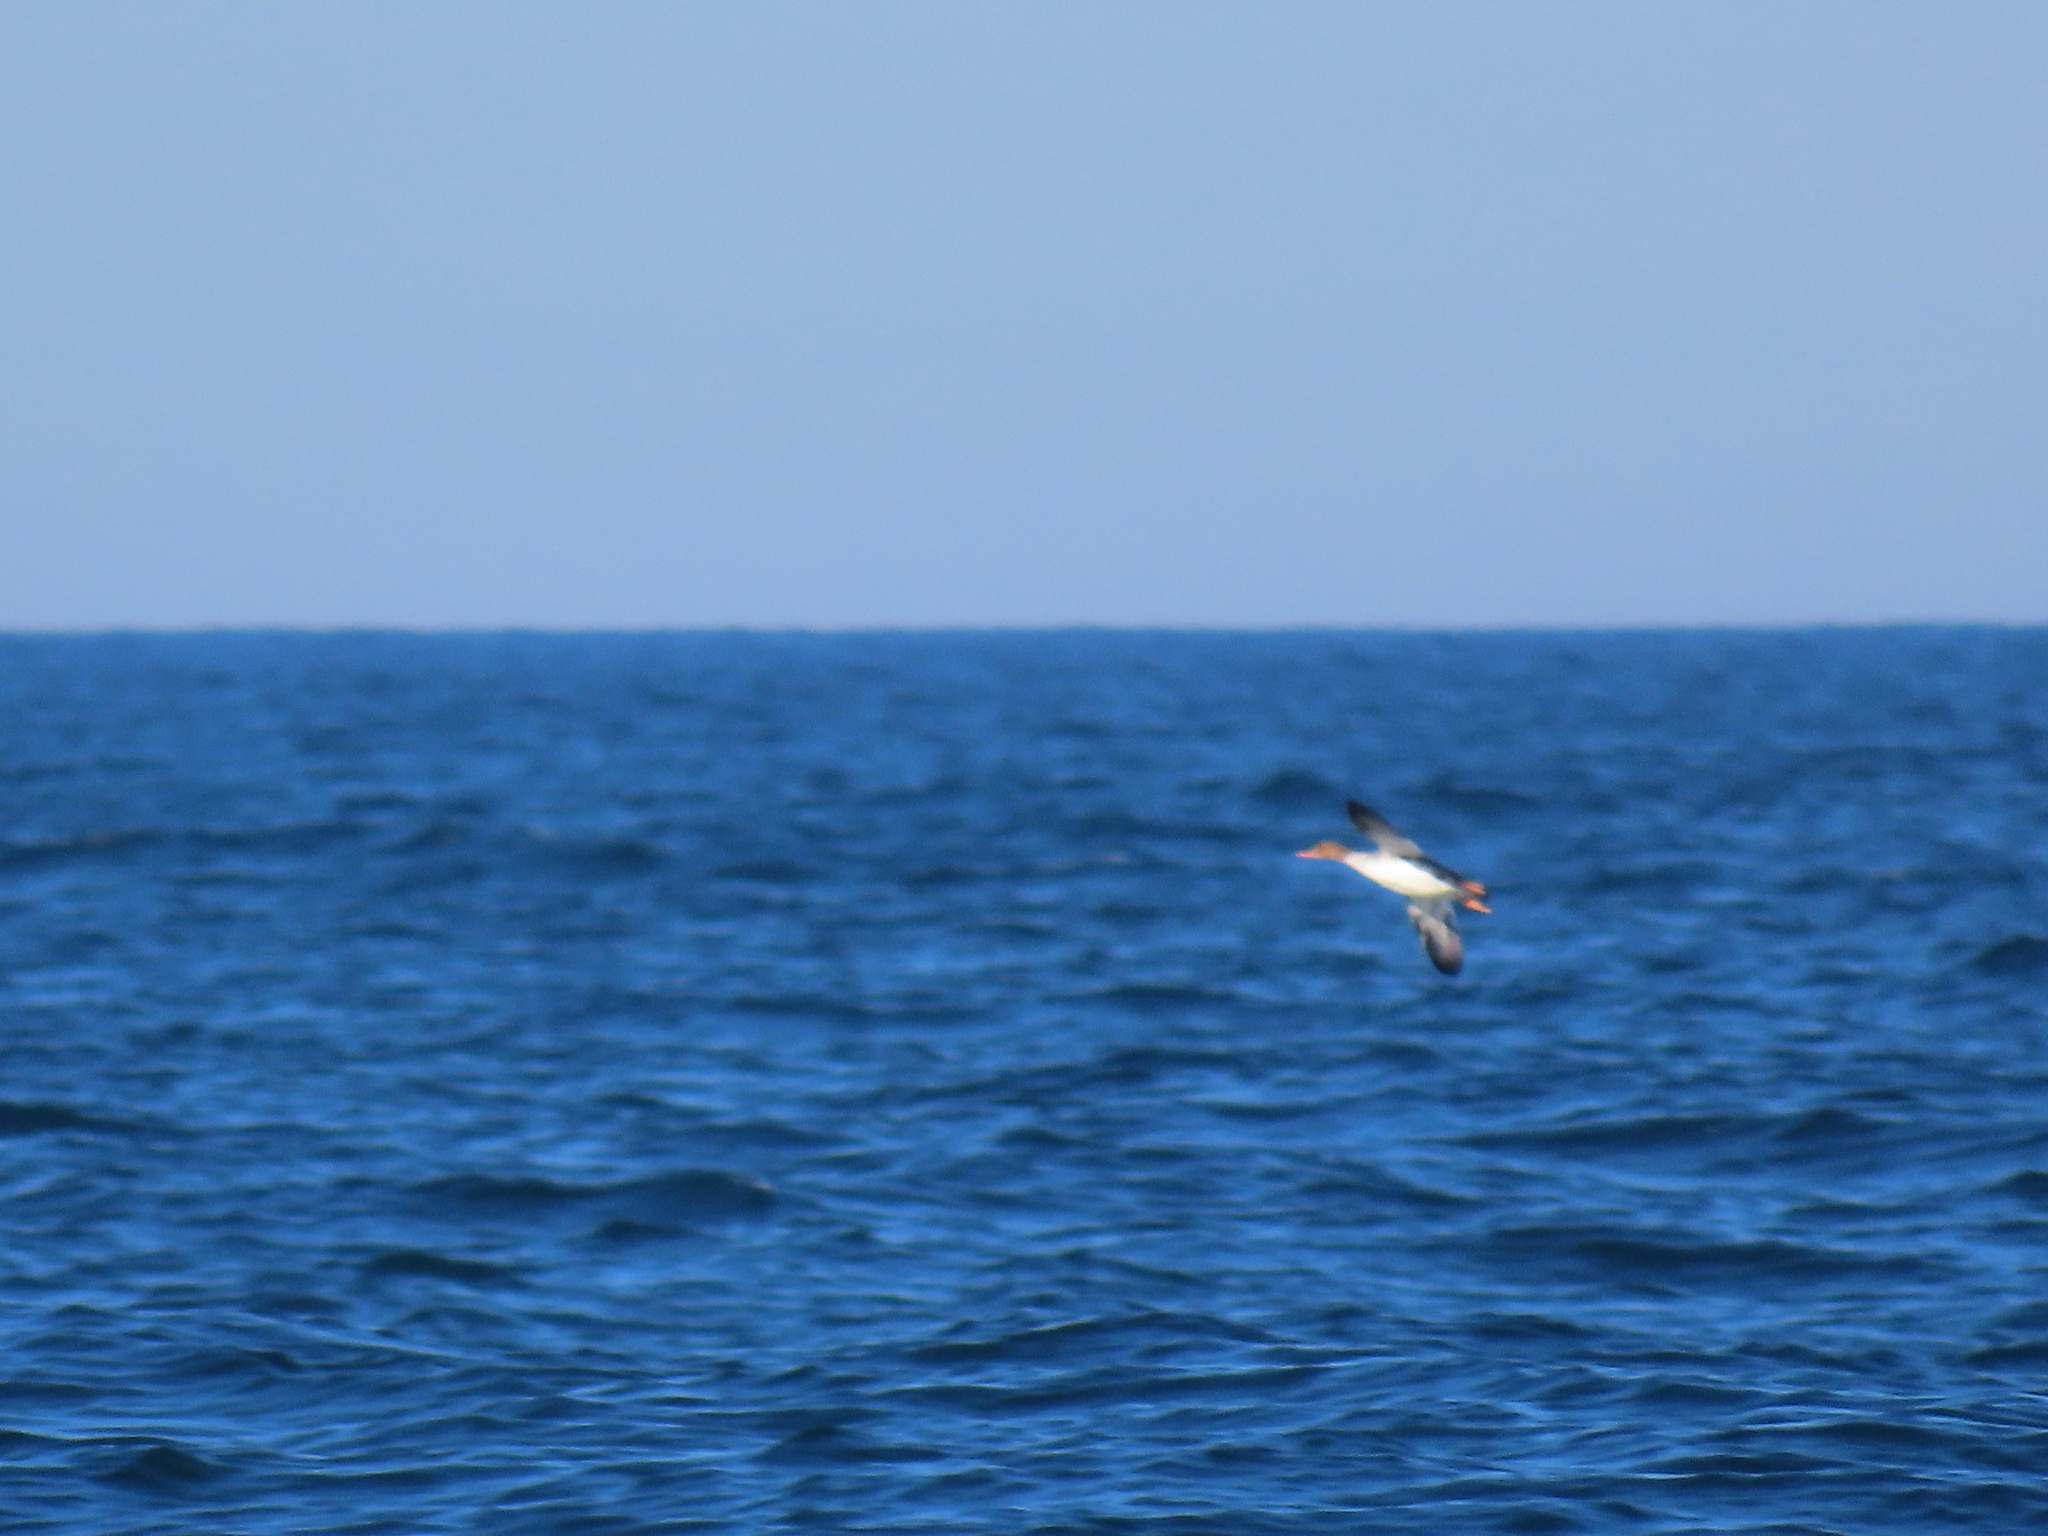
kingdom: Animalia
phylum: Chordata
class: Aves
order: Anseriformes
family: Anatidae
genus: Mergus
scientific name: Mergus serrator
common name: Red-breasted merganser
